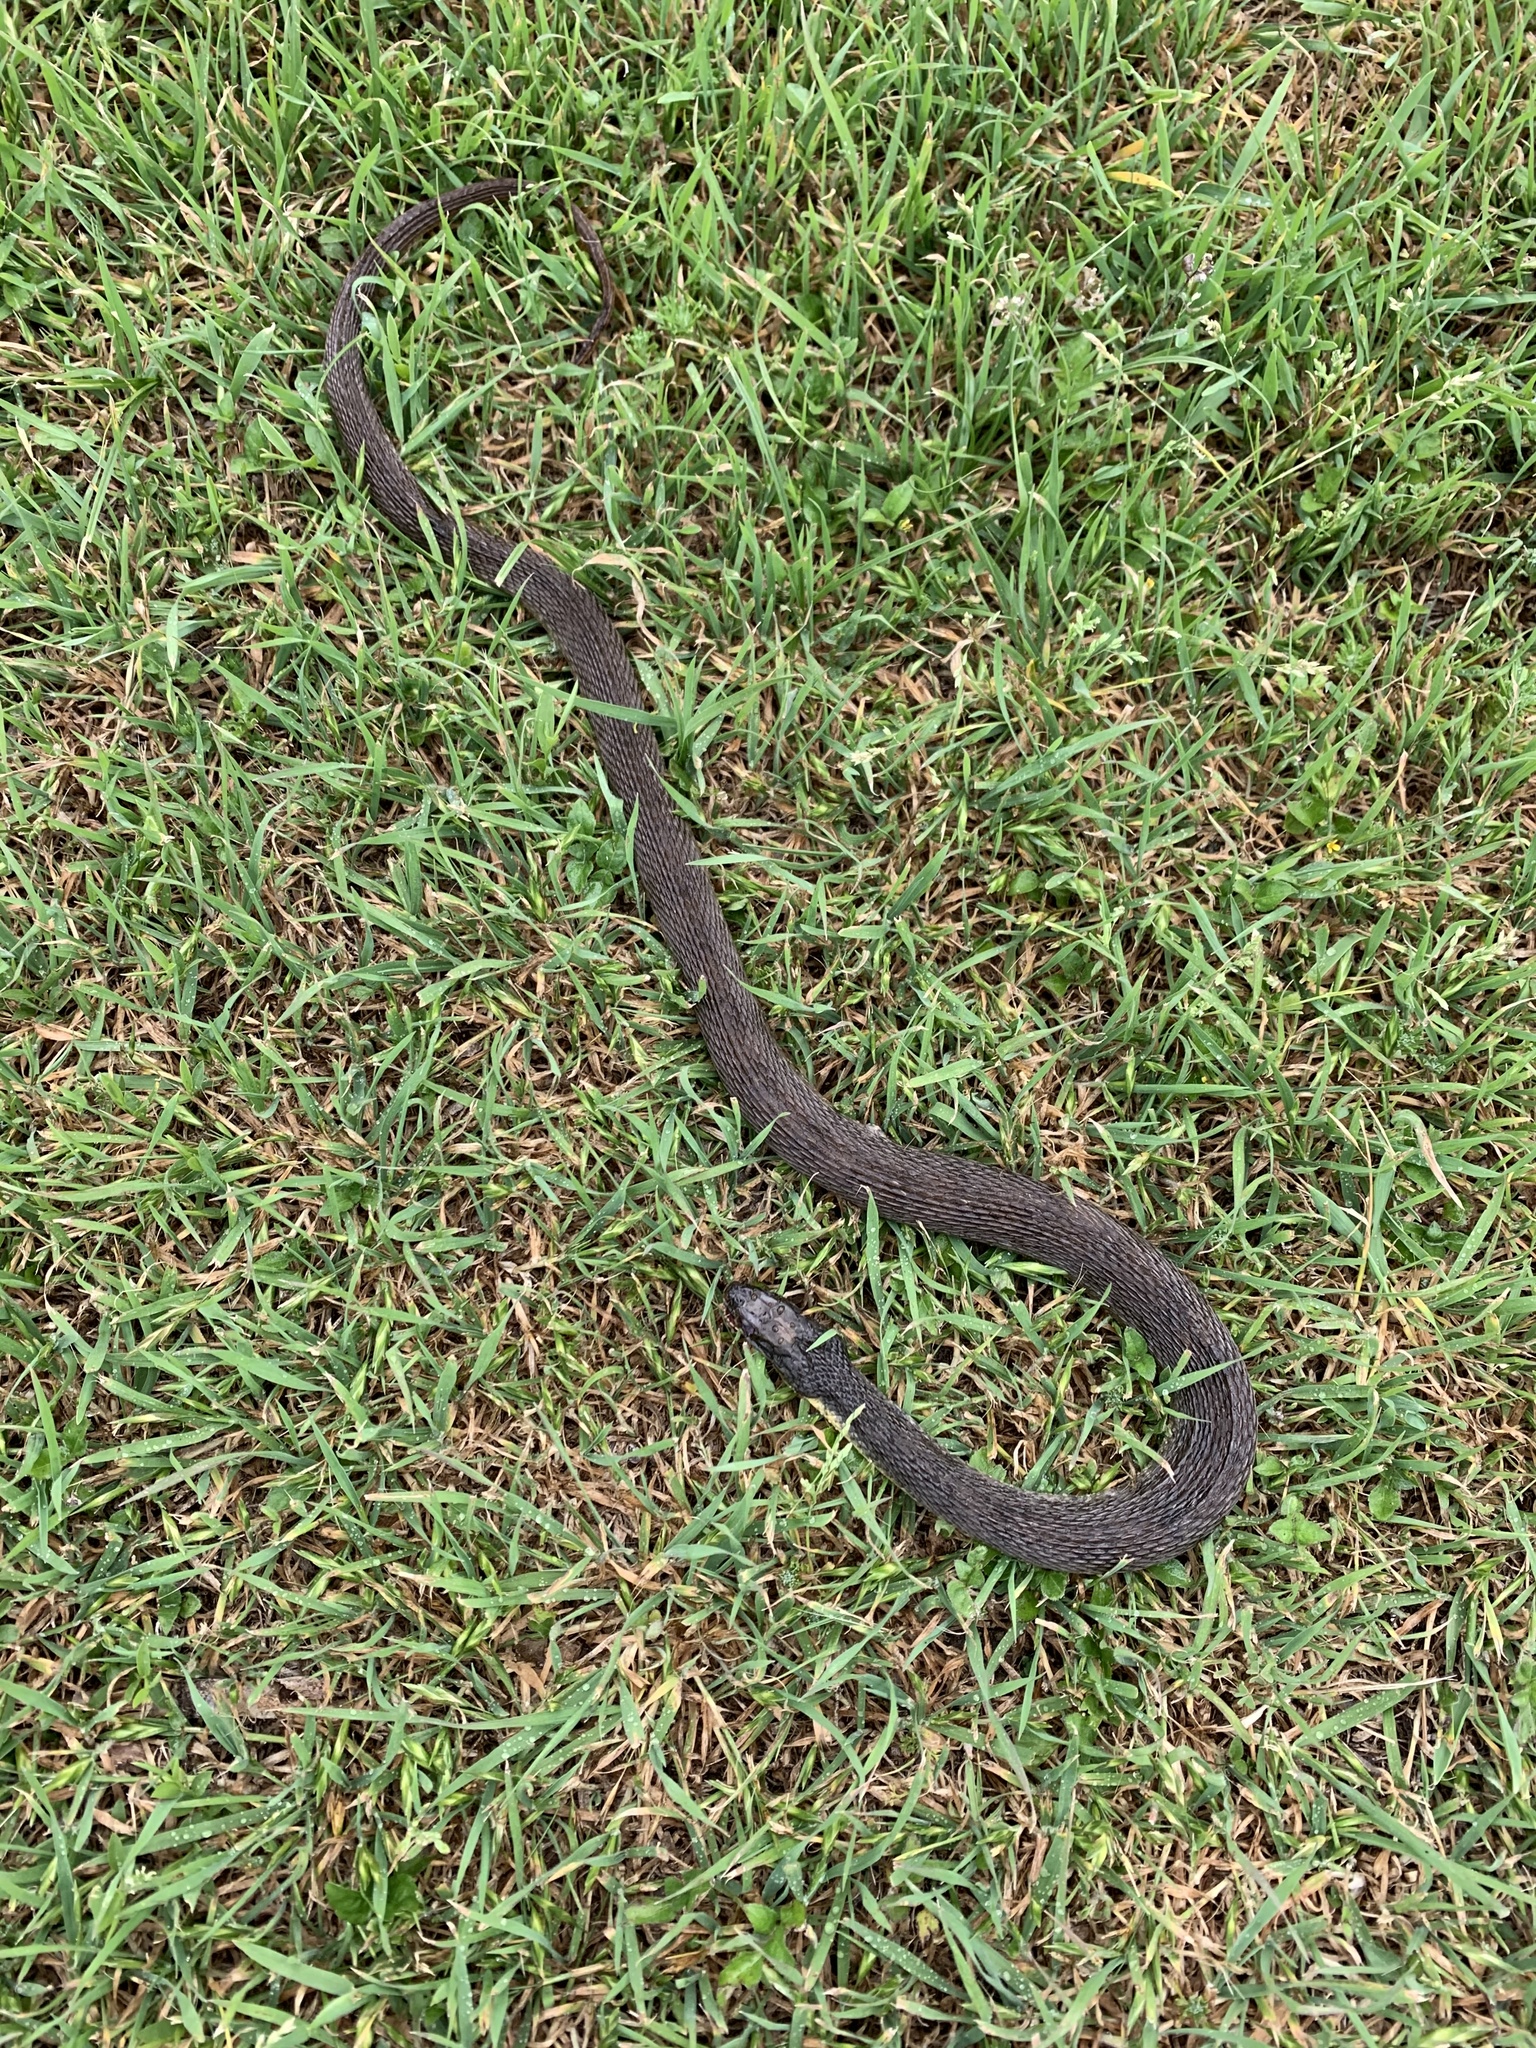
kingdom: Animalia
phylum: Chordata
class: Squamata
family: Colubridae
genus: Nerodia
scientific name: Nerodia erythrogaster
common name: Plainbelly water snake
